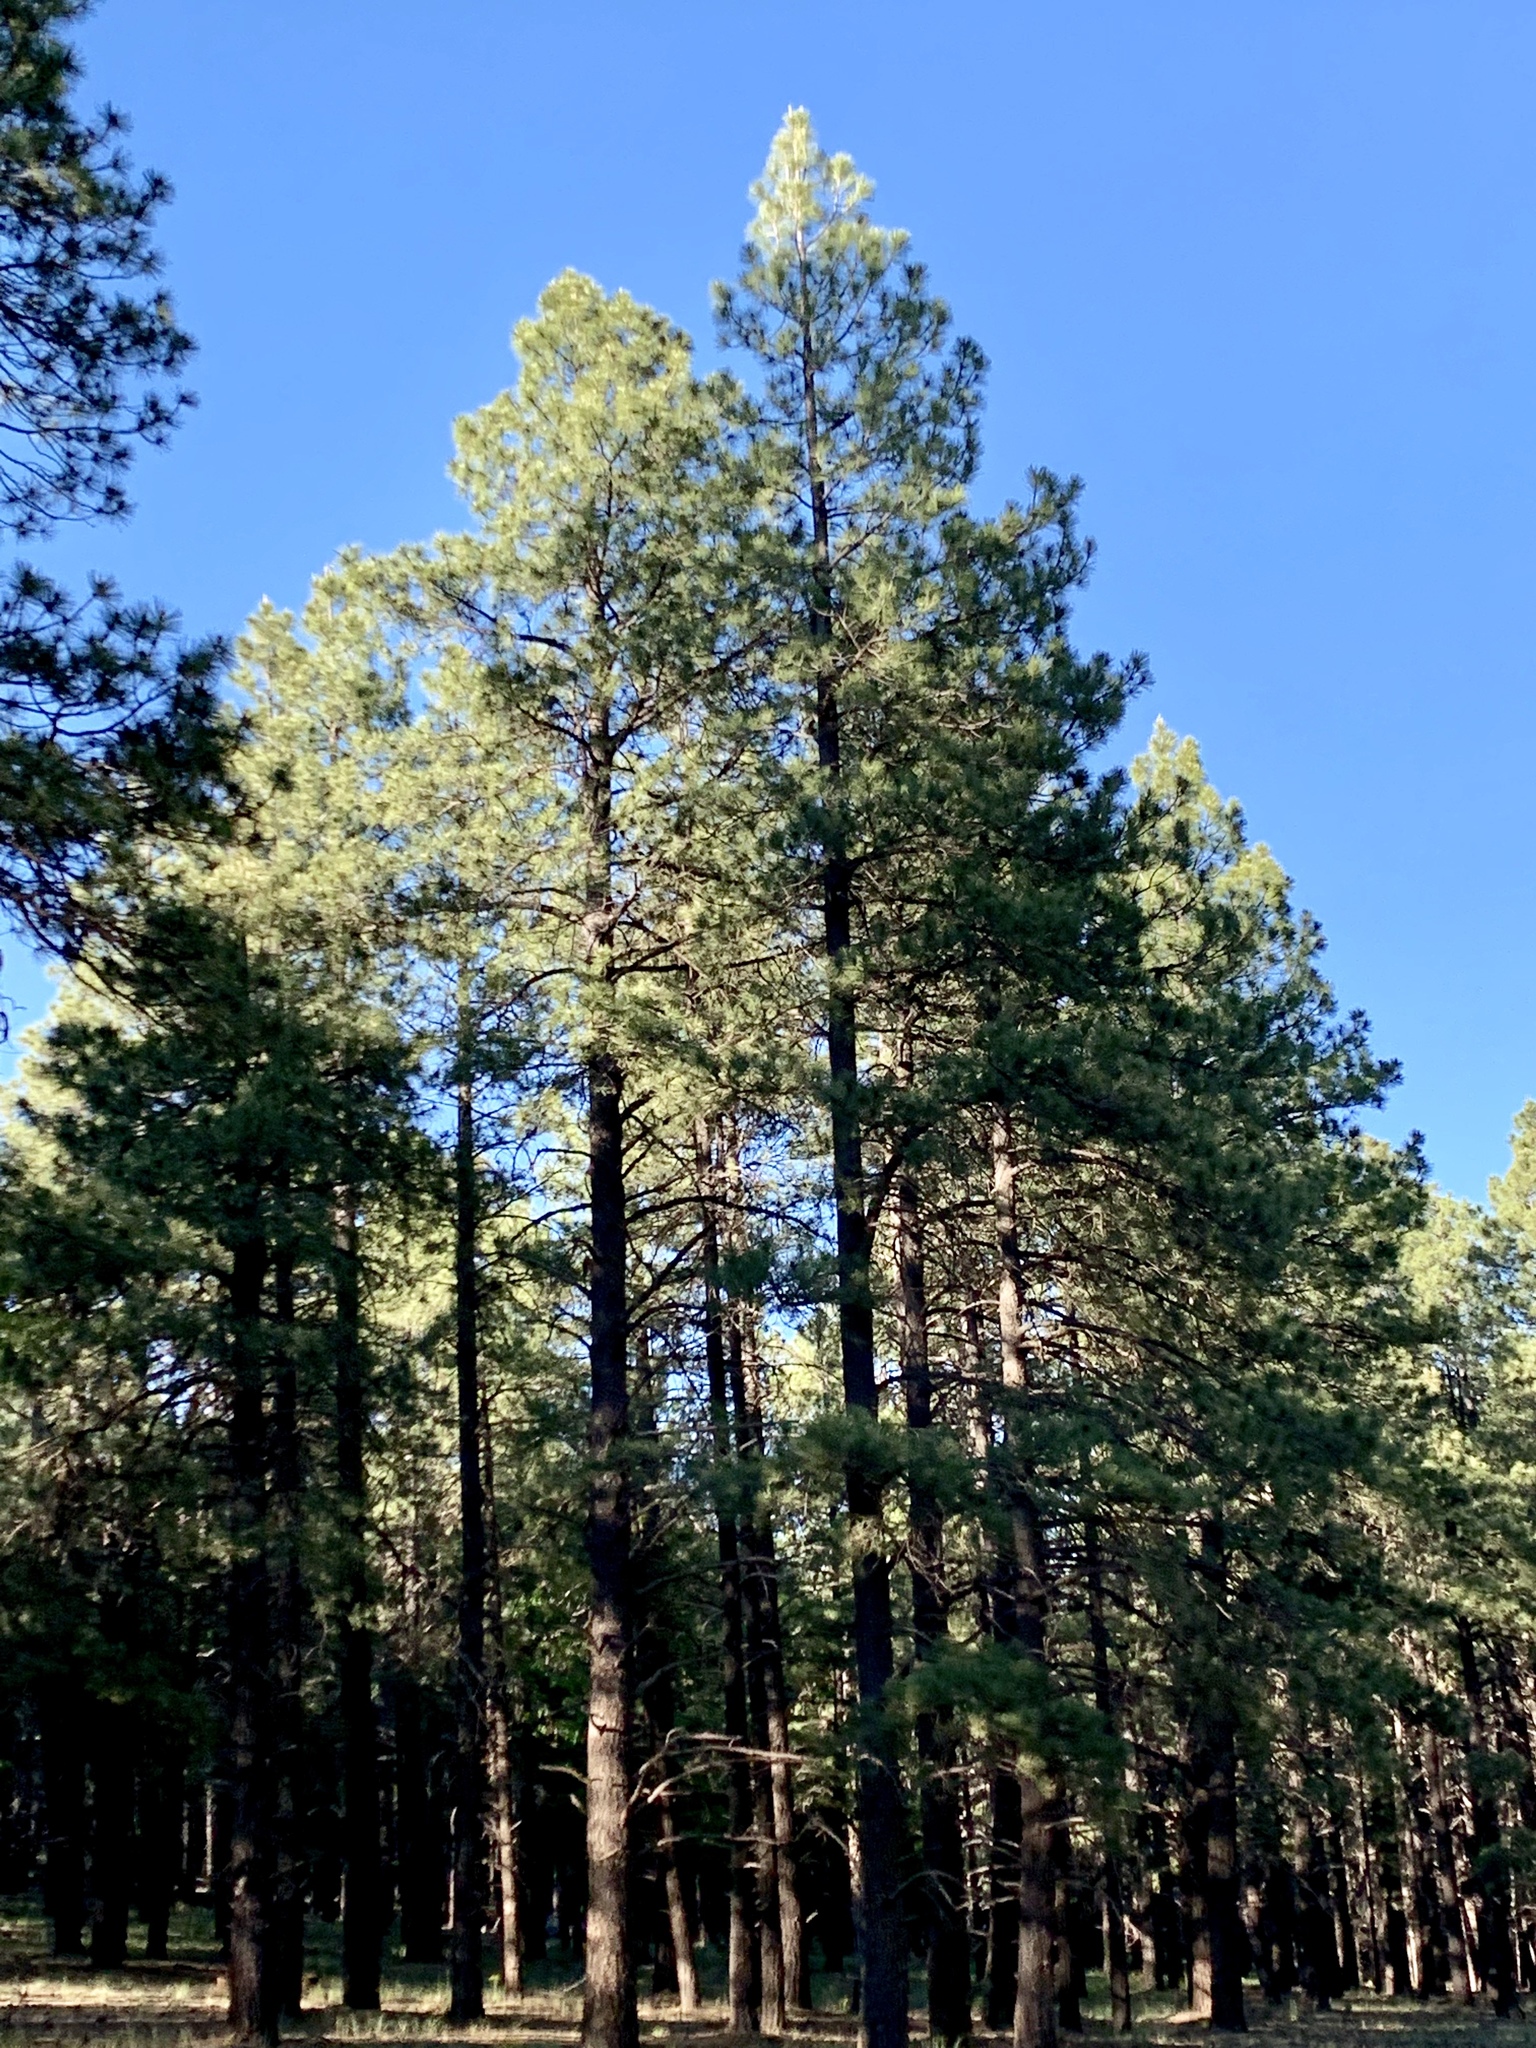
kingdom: Plantae
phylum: Tracheophyta
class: Pinopsida
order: Pinales
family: Pinaceae
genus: Pinus
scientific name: Pinus ponderosa
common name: Western yellow-pine
